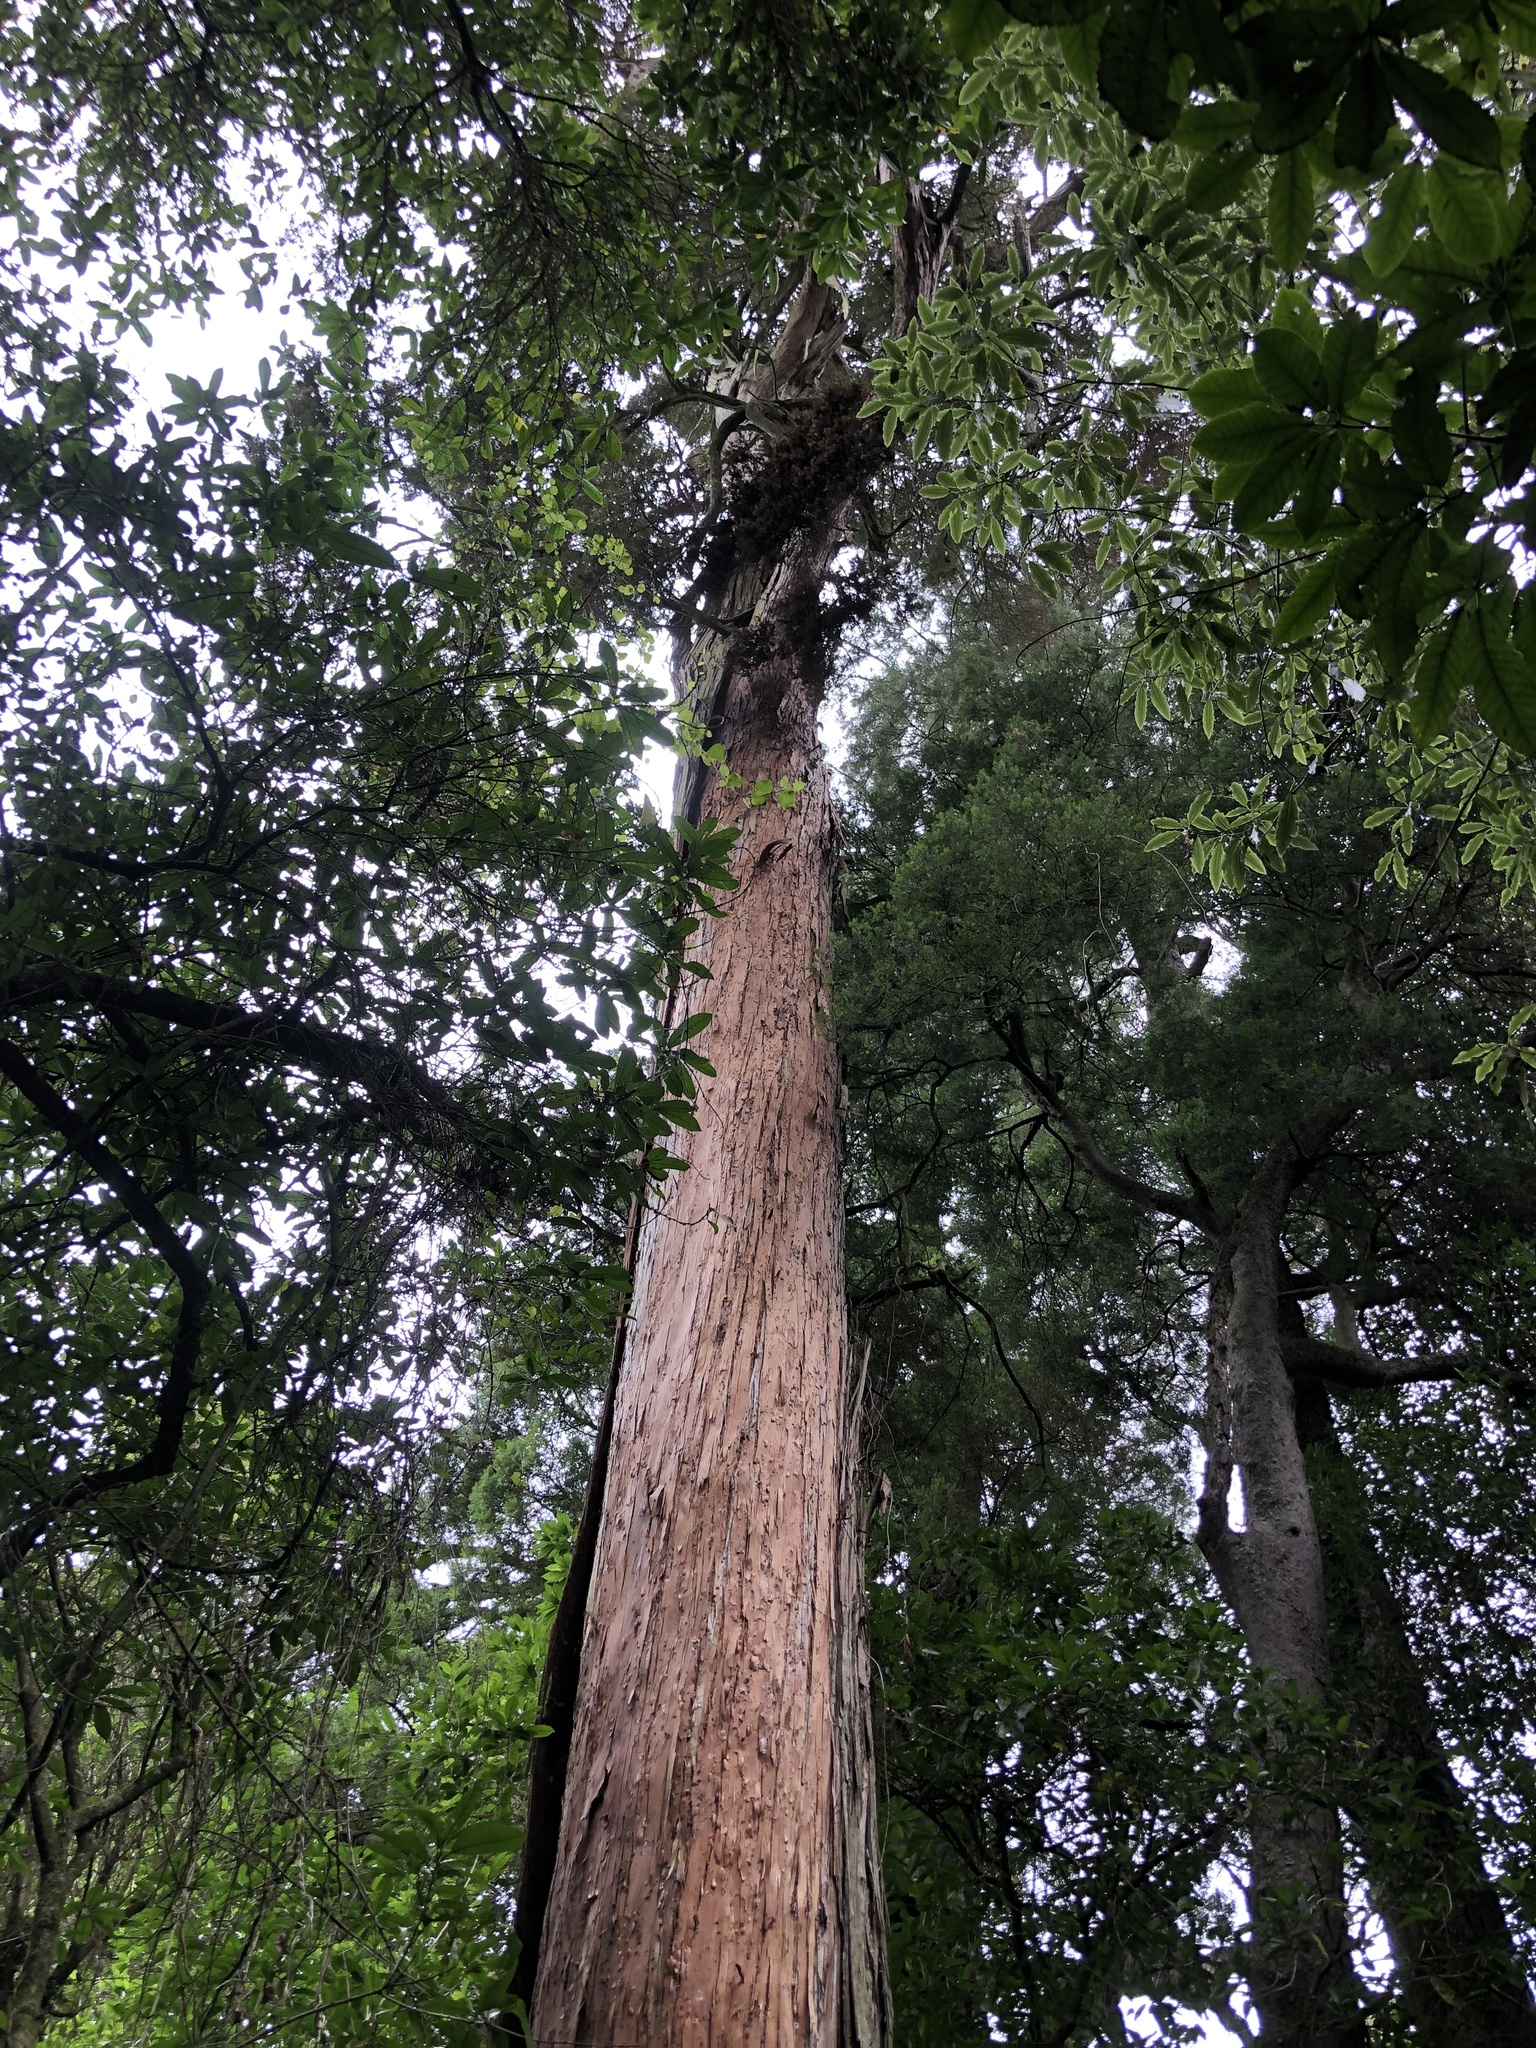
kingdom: Plantae
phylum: Tracheophyta
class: Pinopsida
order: Pinales
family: Podocarpaceae
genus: Podocarpus
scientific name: Podocarpus totara
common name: Totara
